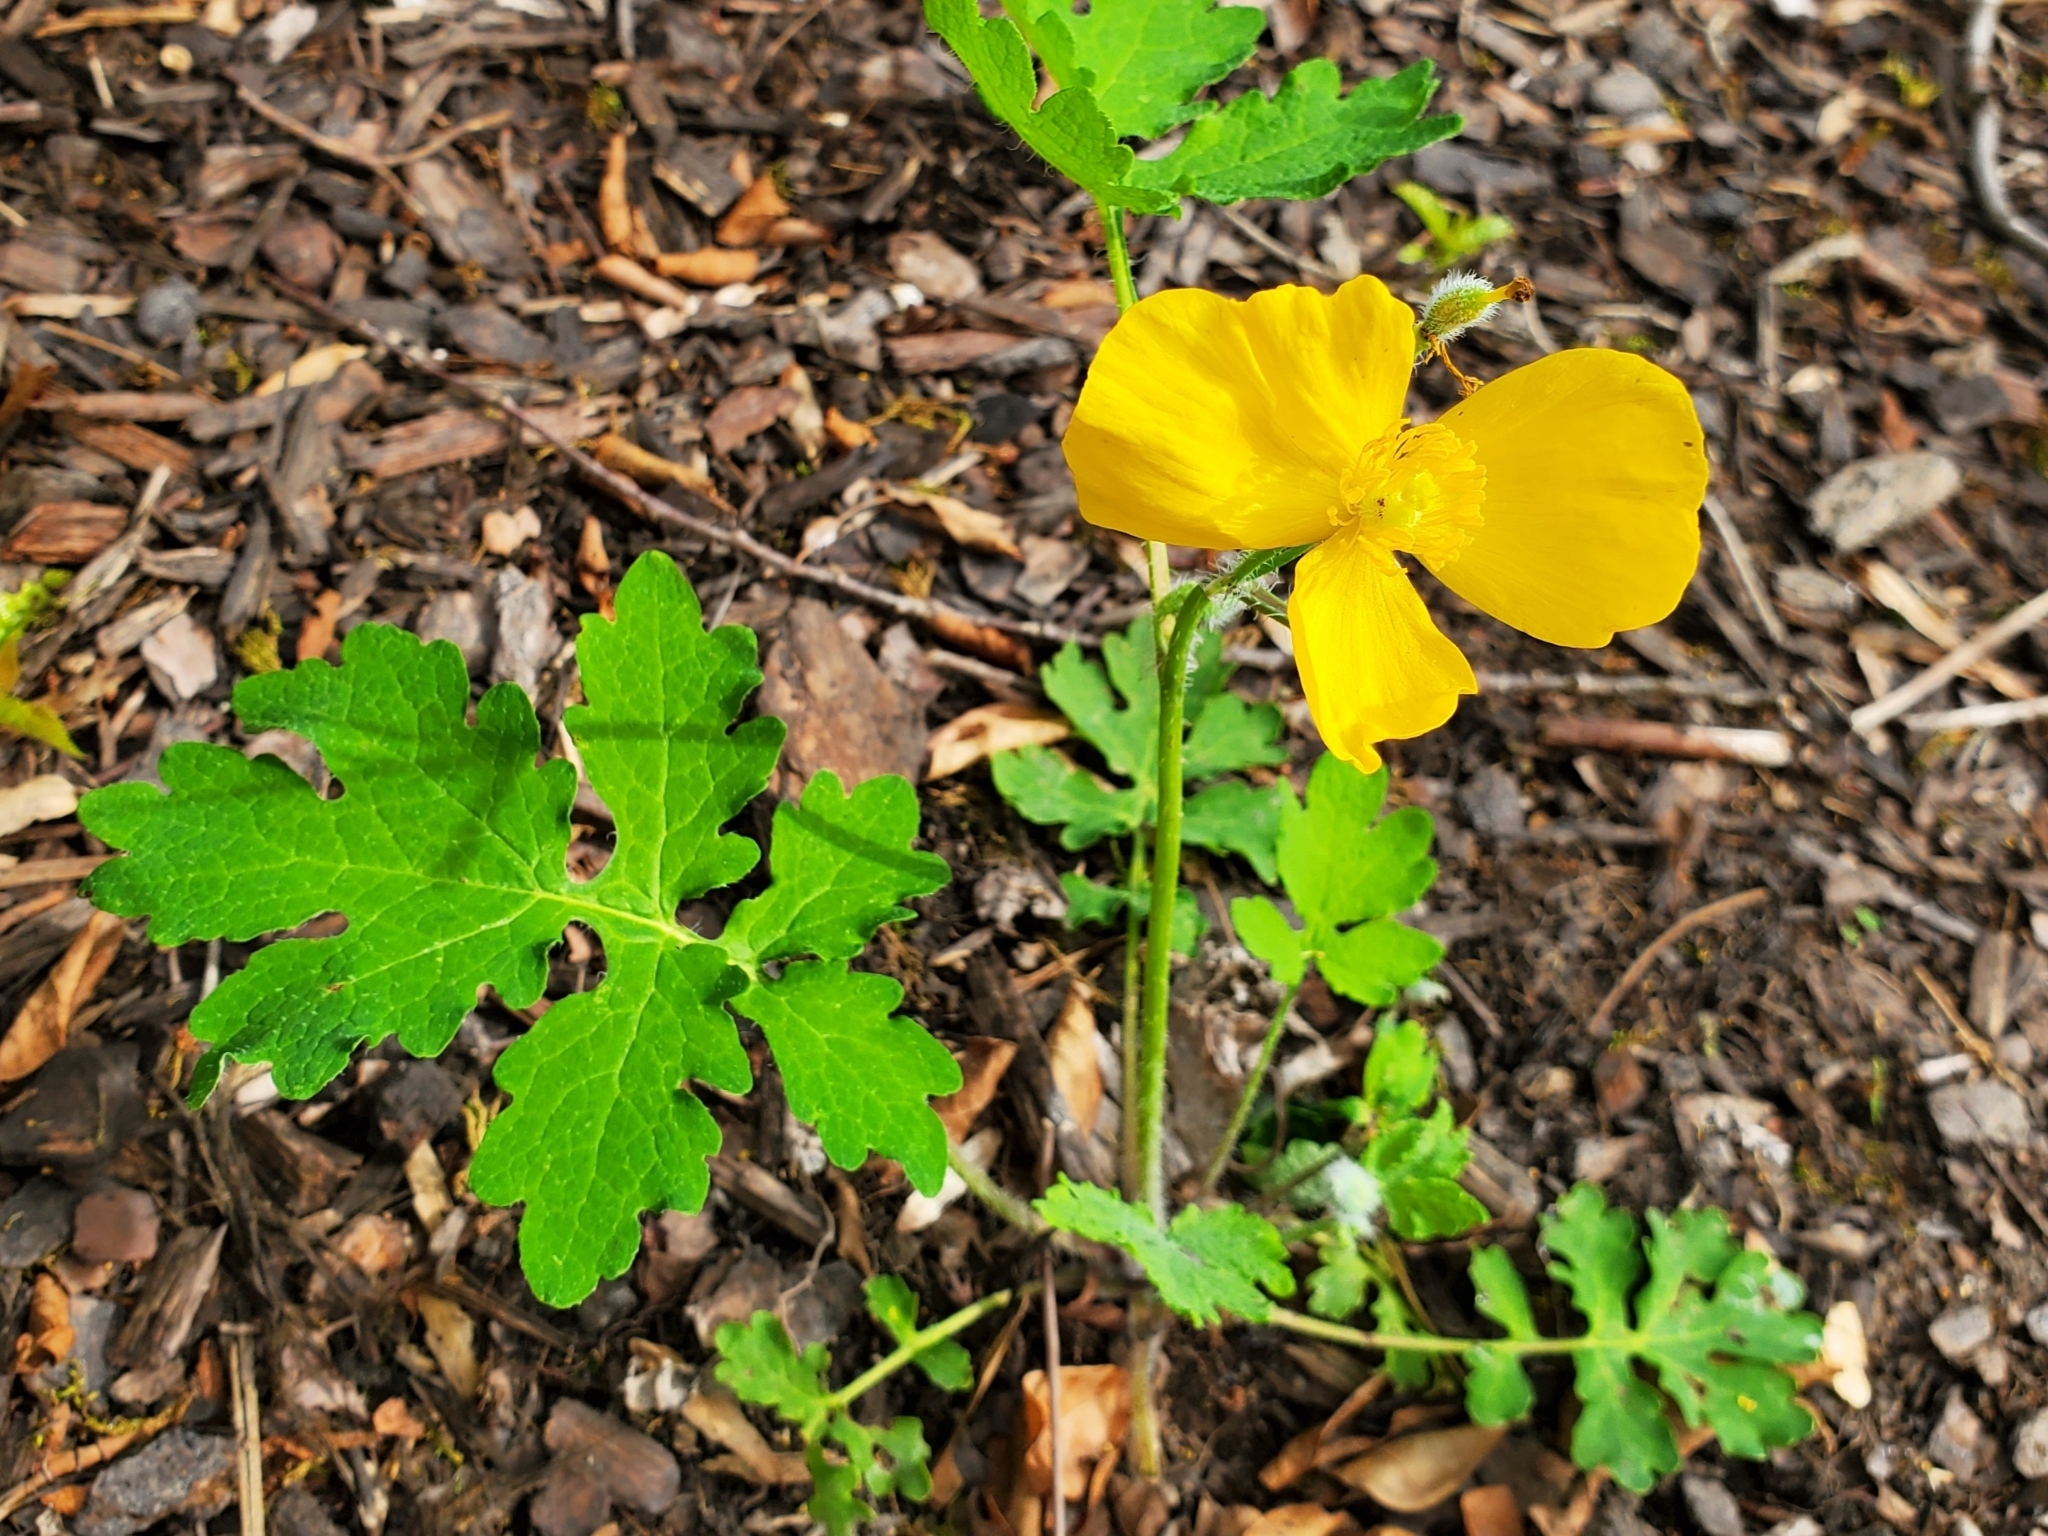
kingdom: Plantae
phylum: Tracheophyta
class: Magnoliopsida
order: Ranunculales
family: Papaveraceae
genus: Stylophorum
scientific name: Stylophorum diphyllum
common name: Celandine poppy
